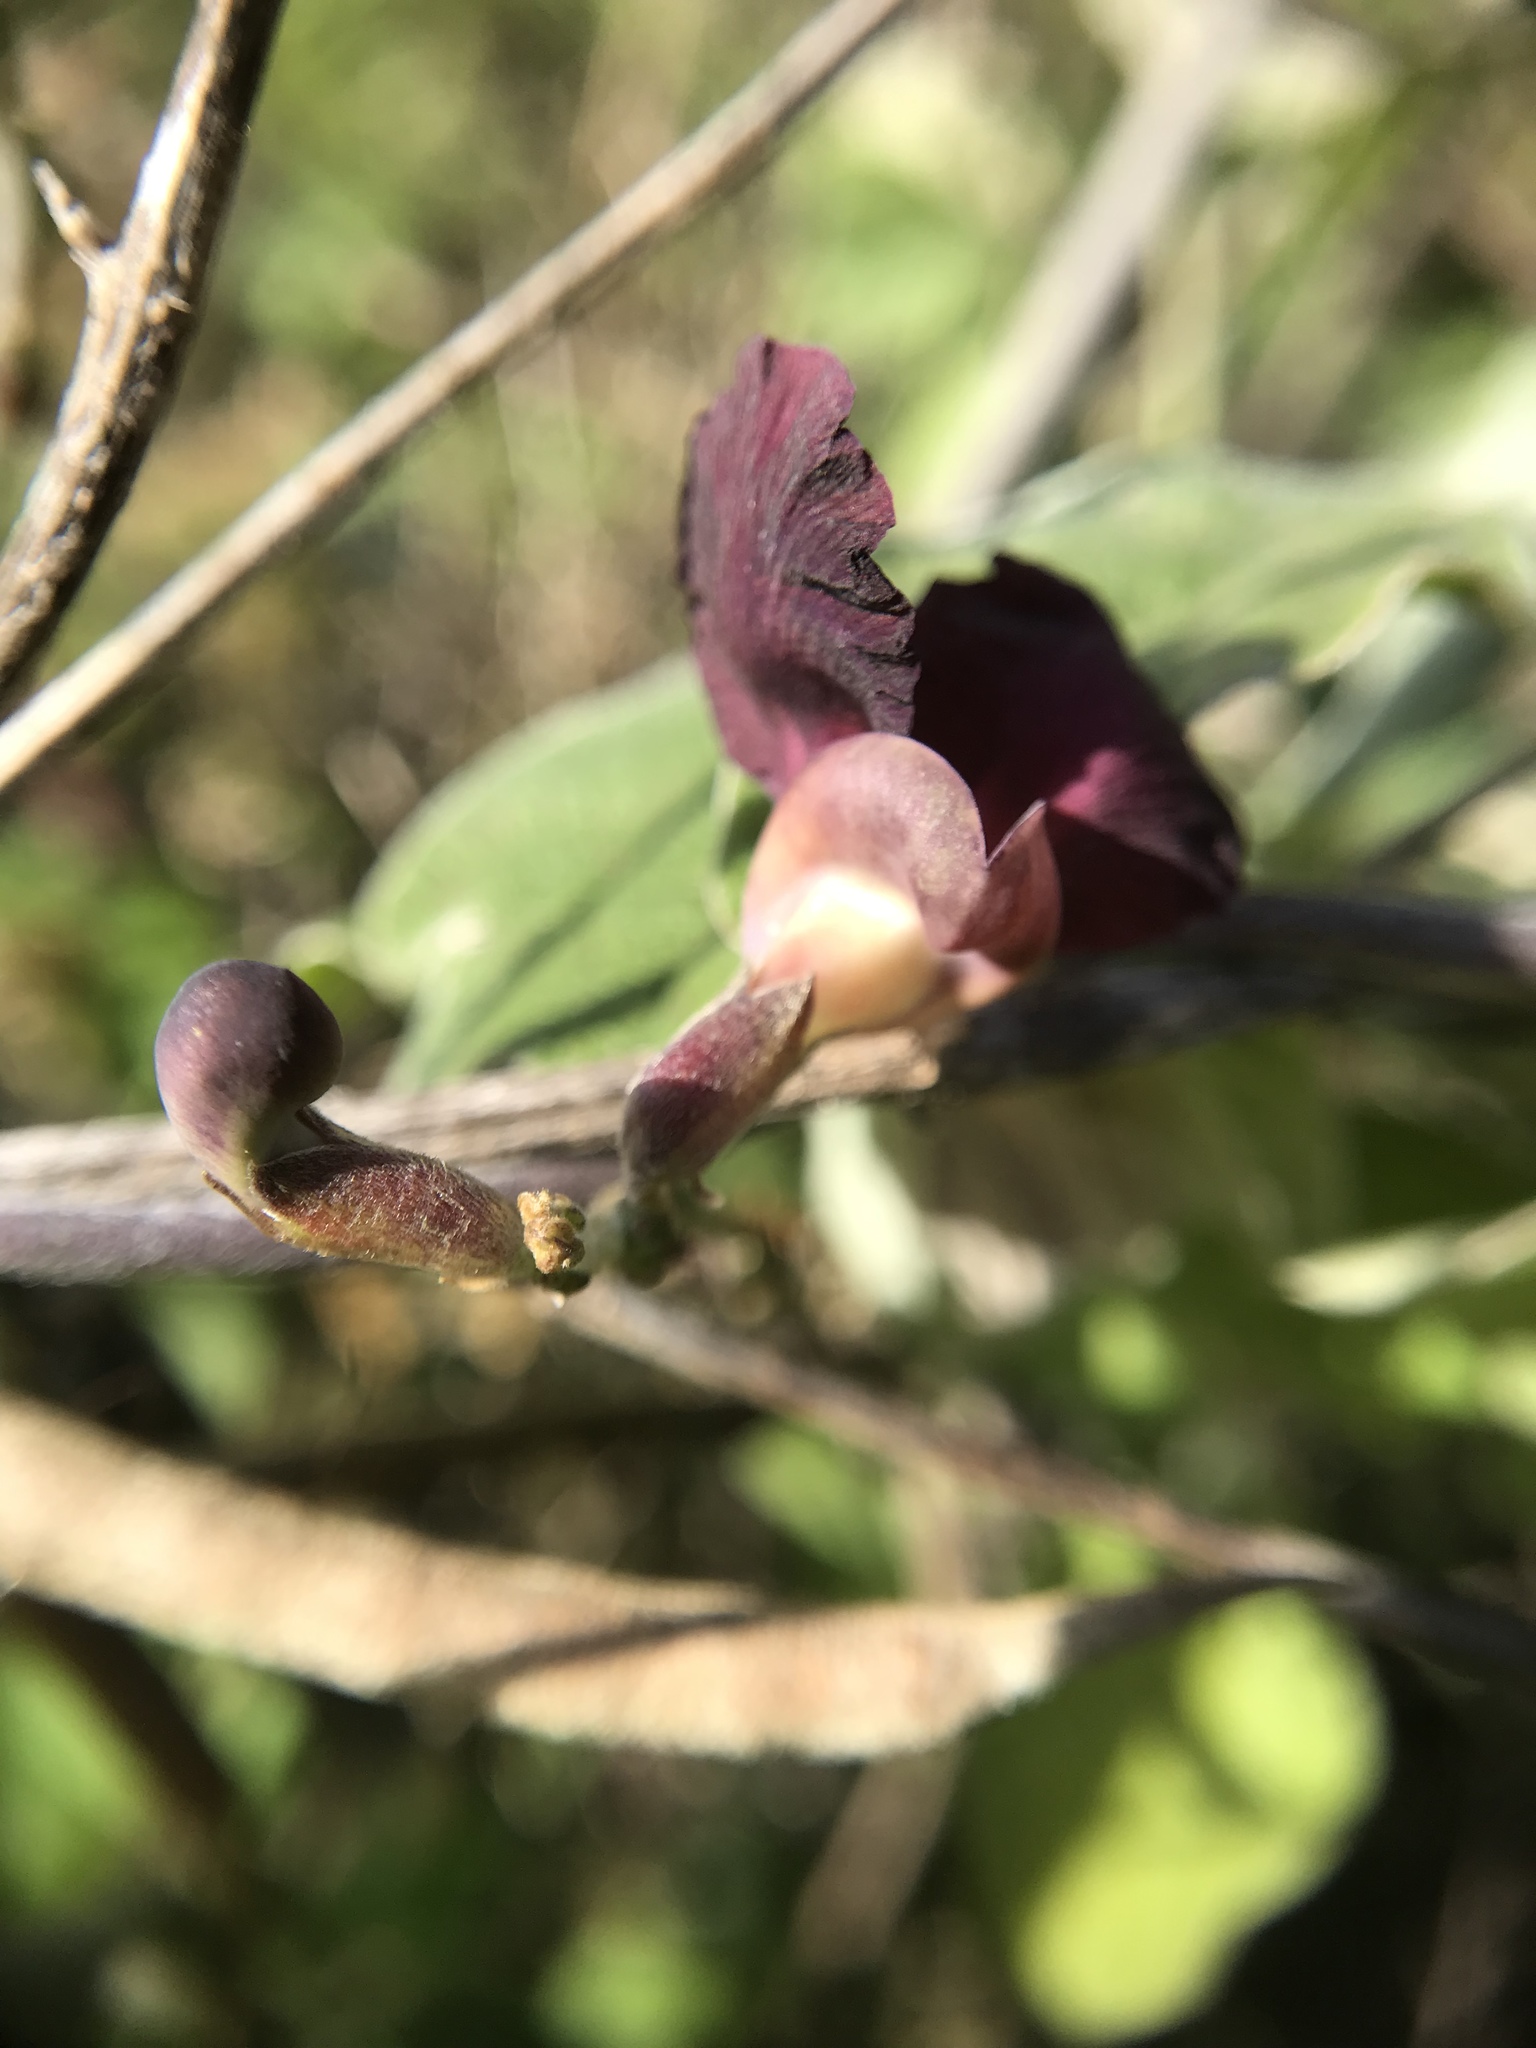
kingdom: Plantae
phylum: Tracheophyta
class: Magnoliopsida
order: Fabales
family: Fabaceae
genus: Macroptilium
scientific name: Macroptilium atropurpureum
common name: Purple bushbean
